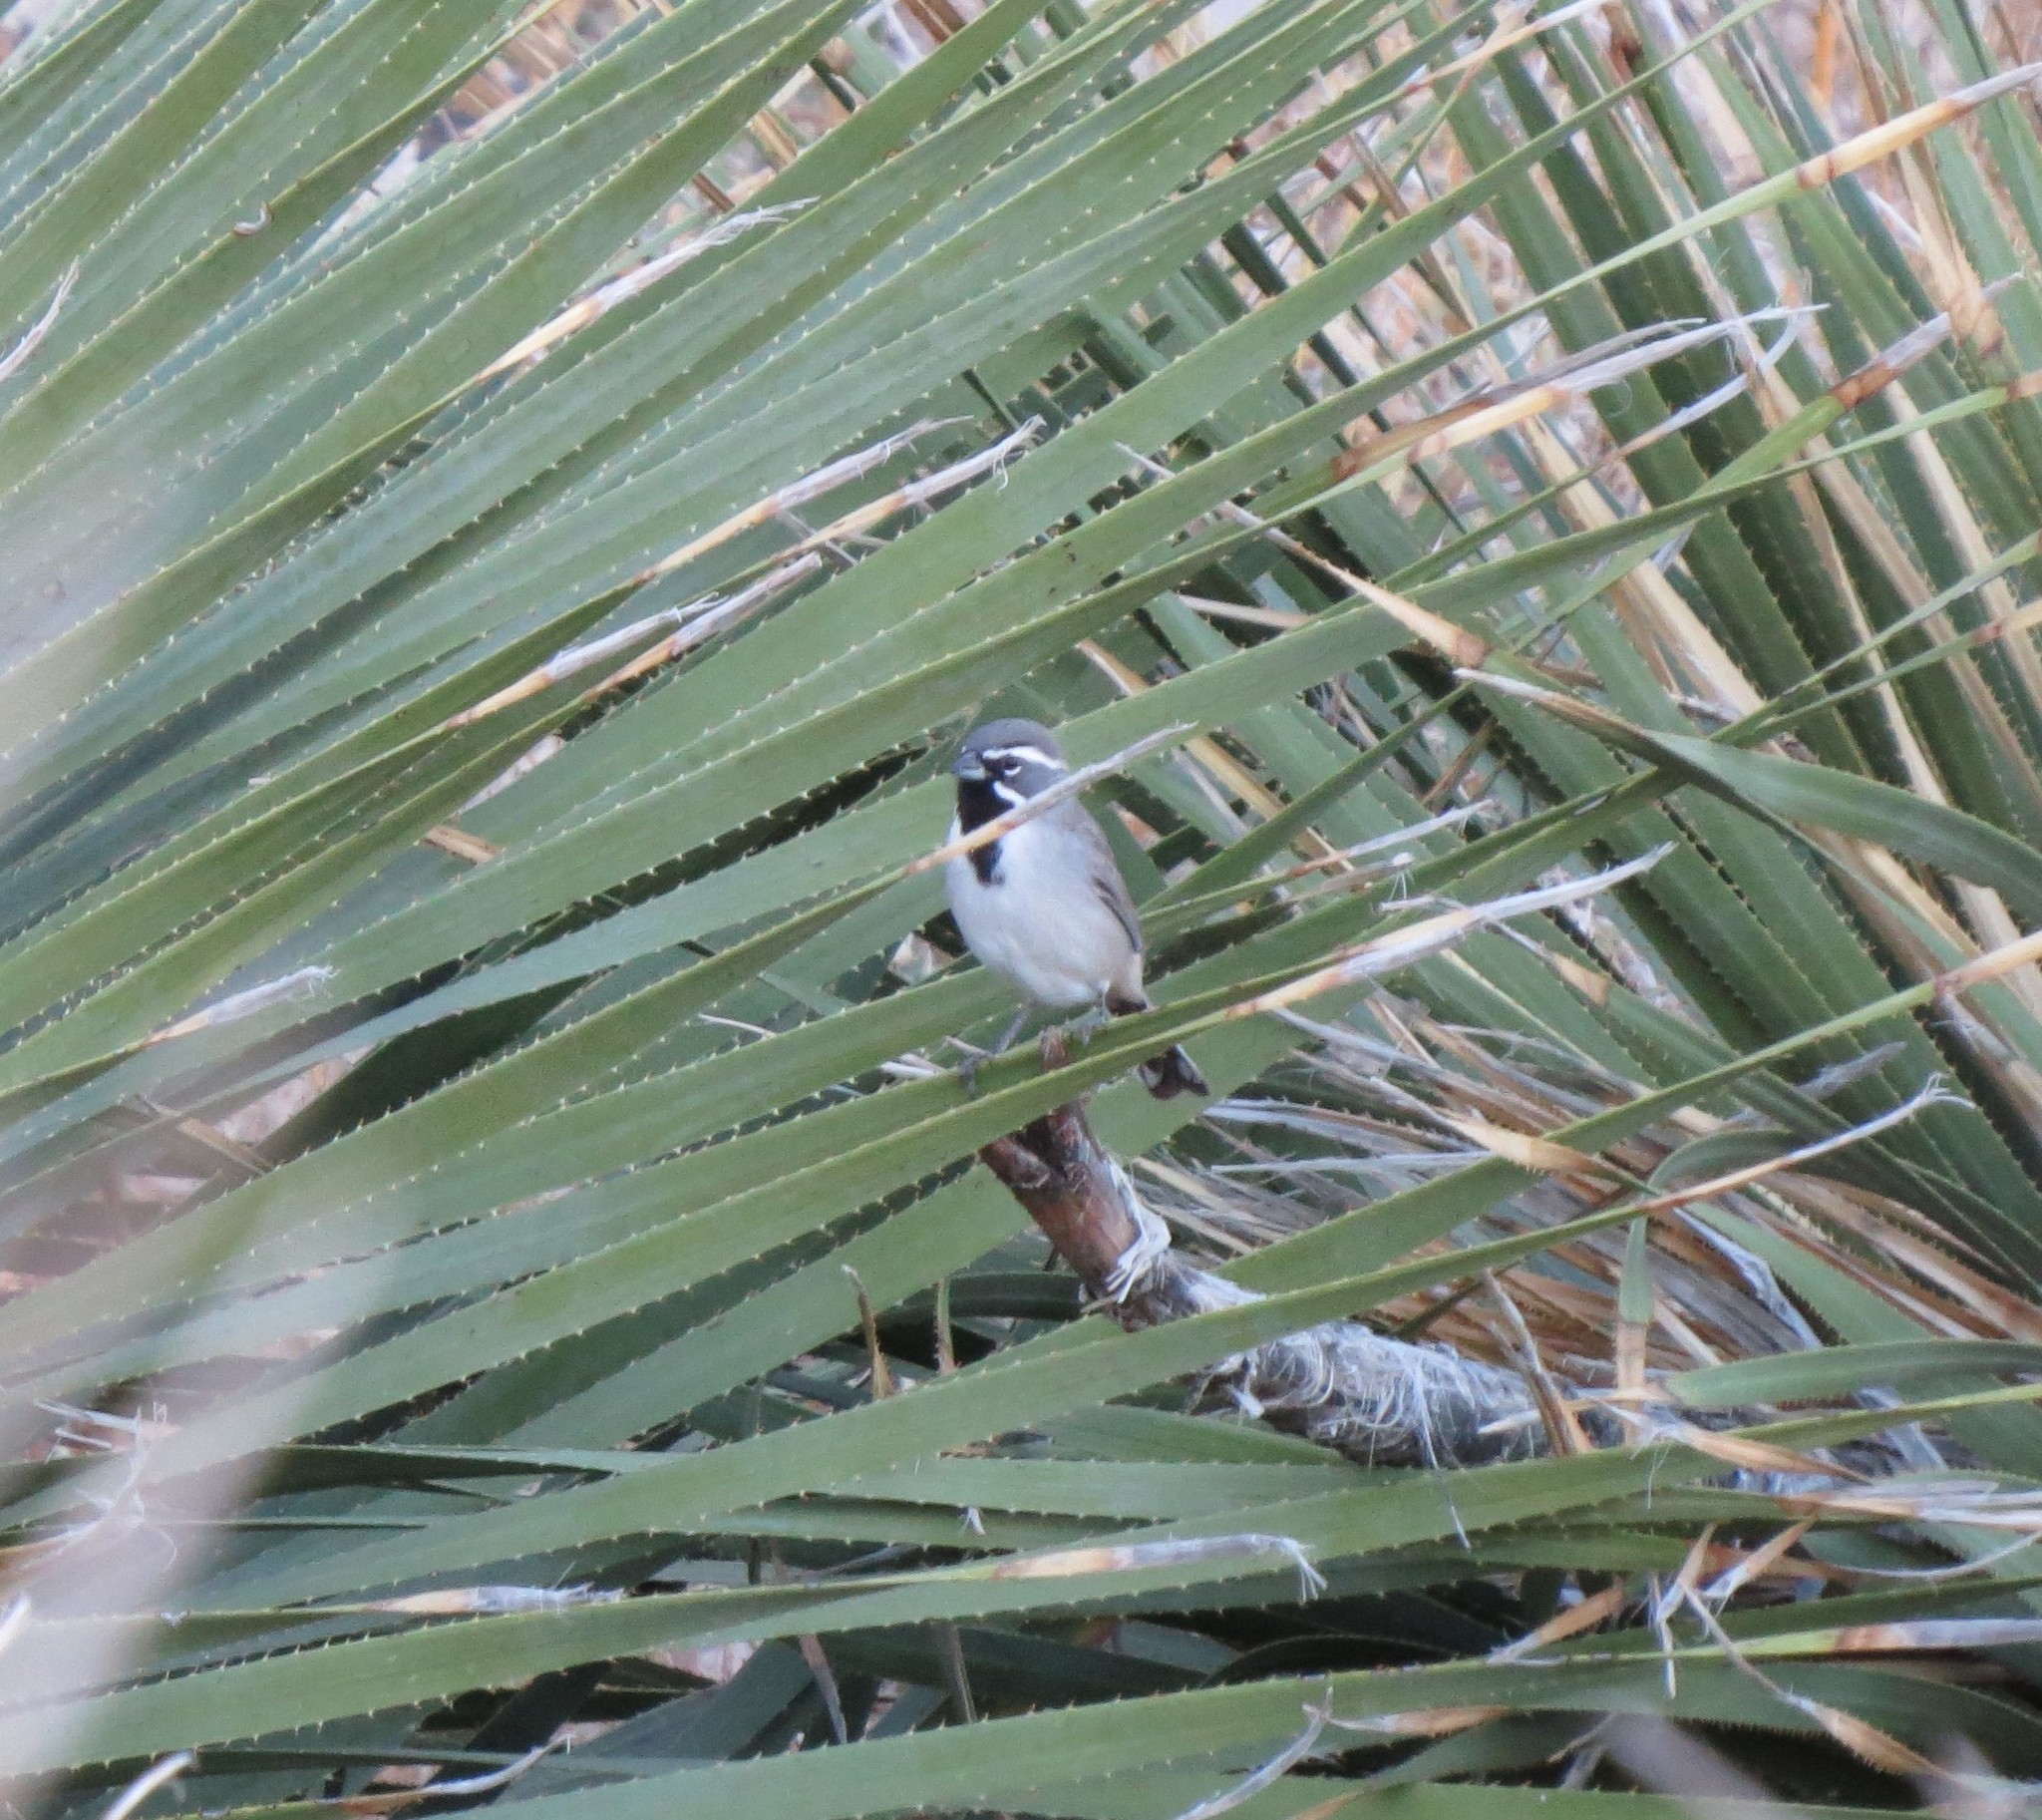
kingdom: Animalia
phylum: Chordata
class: Aves
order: Passeriformes
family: Passerellidae
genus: Amphispiza
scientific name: Amphispiza bilineata
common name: Black-throated sparrow
